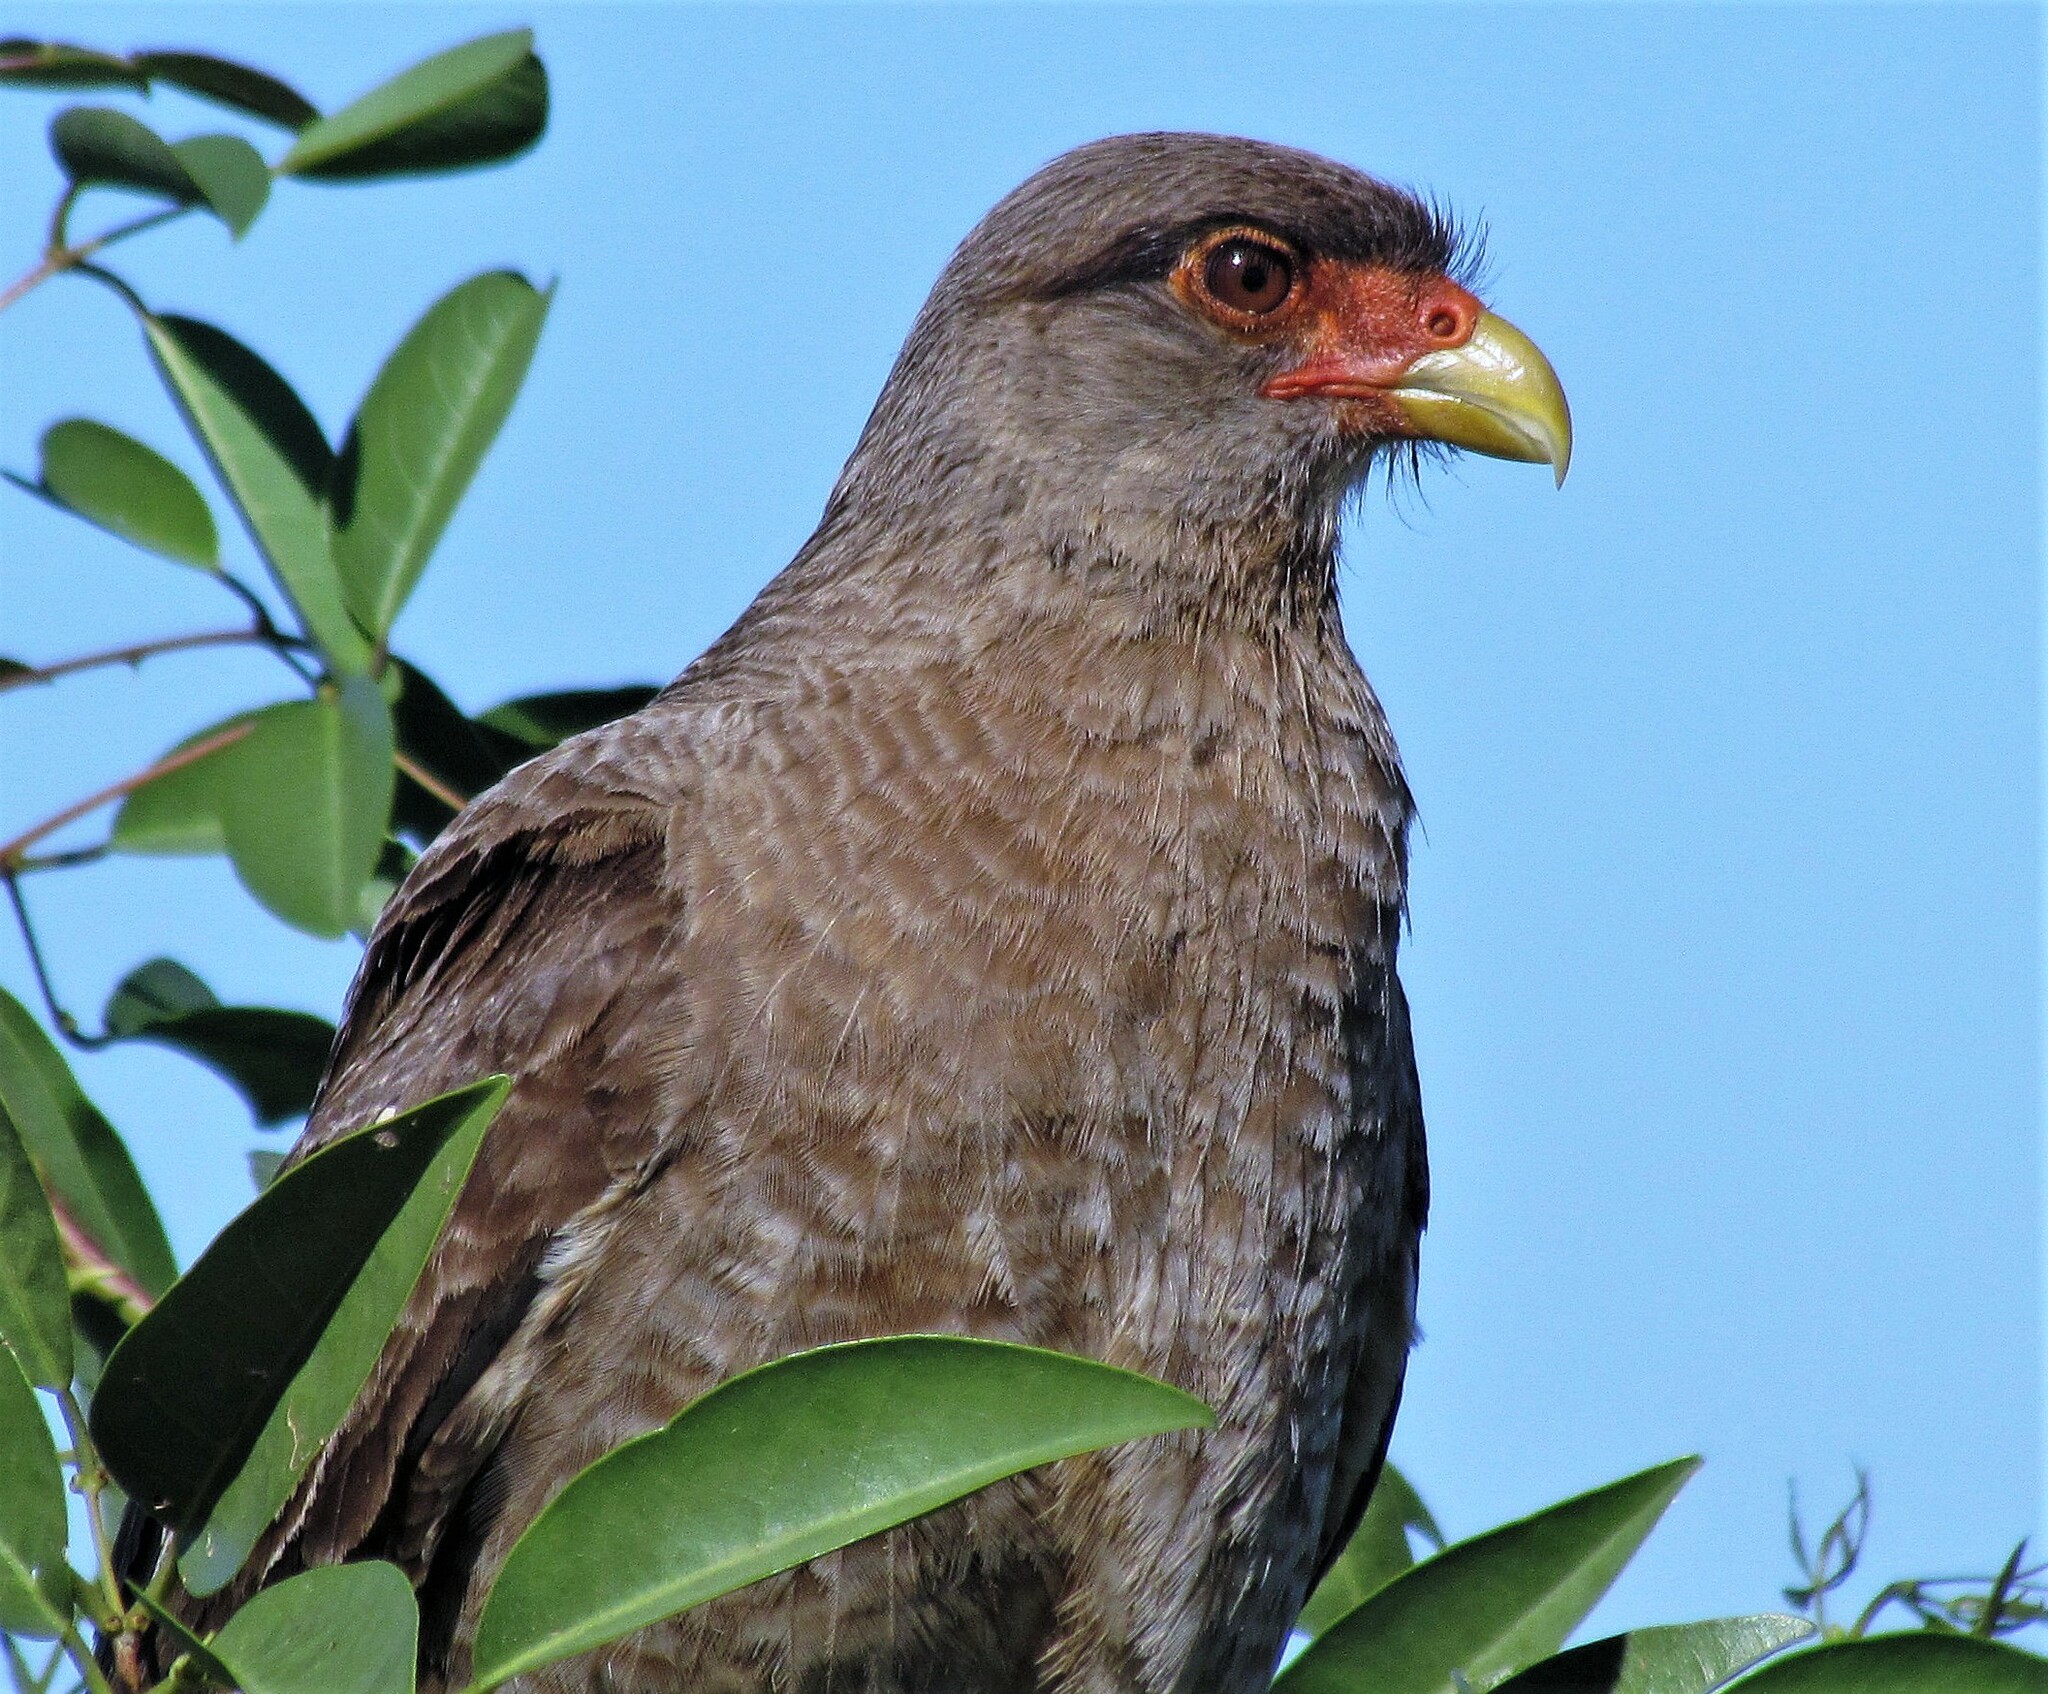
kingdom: Animalia
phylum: Chordata
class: Aves
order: Falconiformes
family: Falconidae
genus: Daptrius
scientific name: Daptrius
